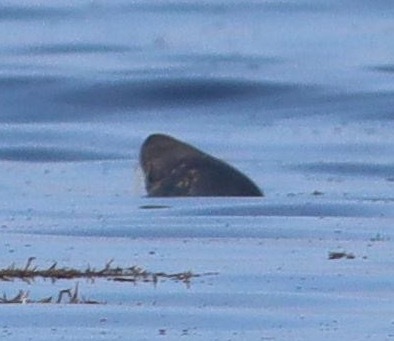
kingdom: Animalia
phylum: Chordata
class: Mammalia
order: Carnivora
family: Phocidae
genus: Halichoerus
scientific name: Halichoerus grypus
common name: Grey seal
